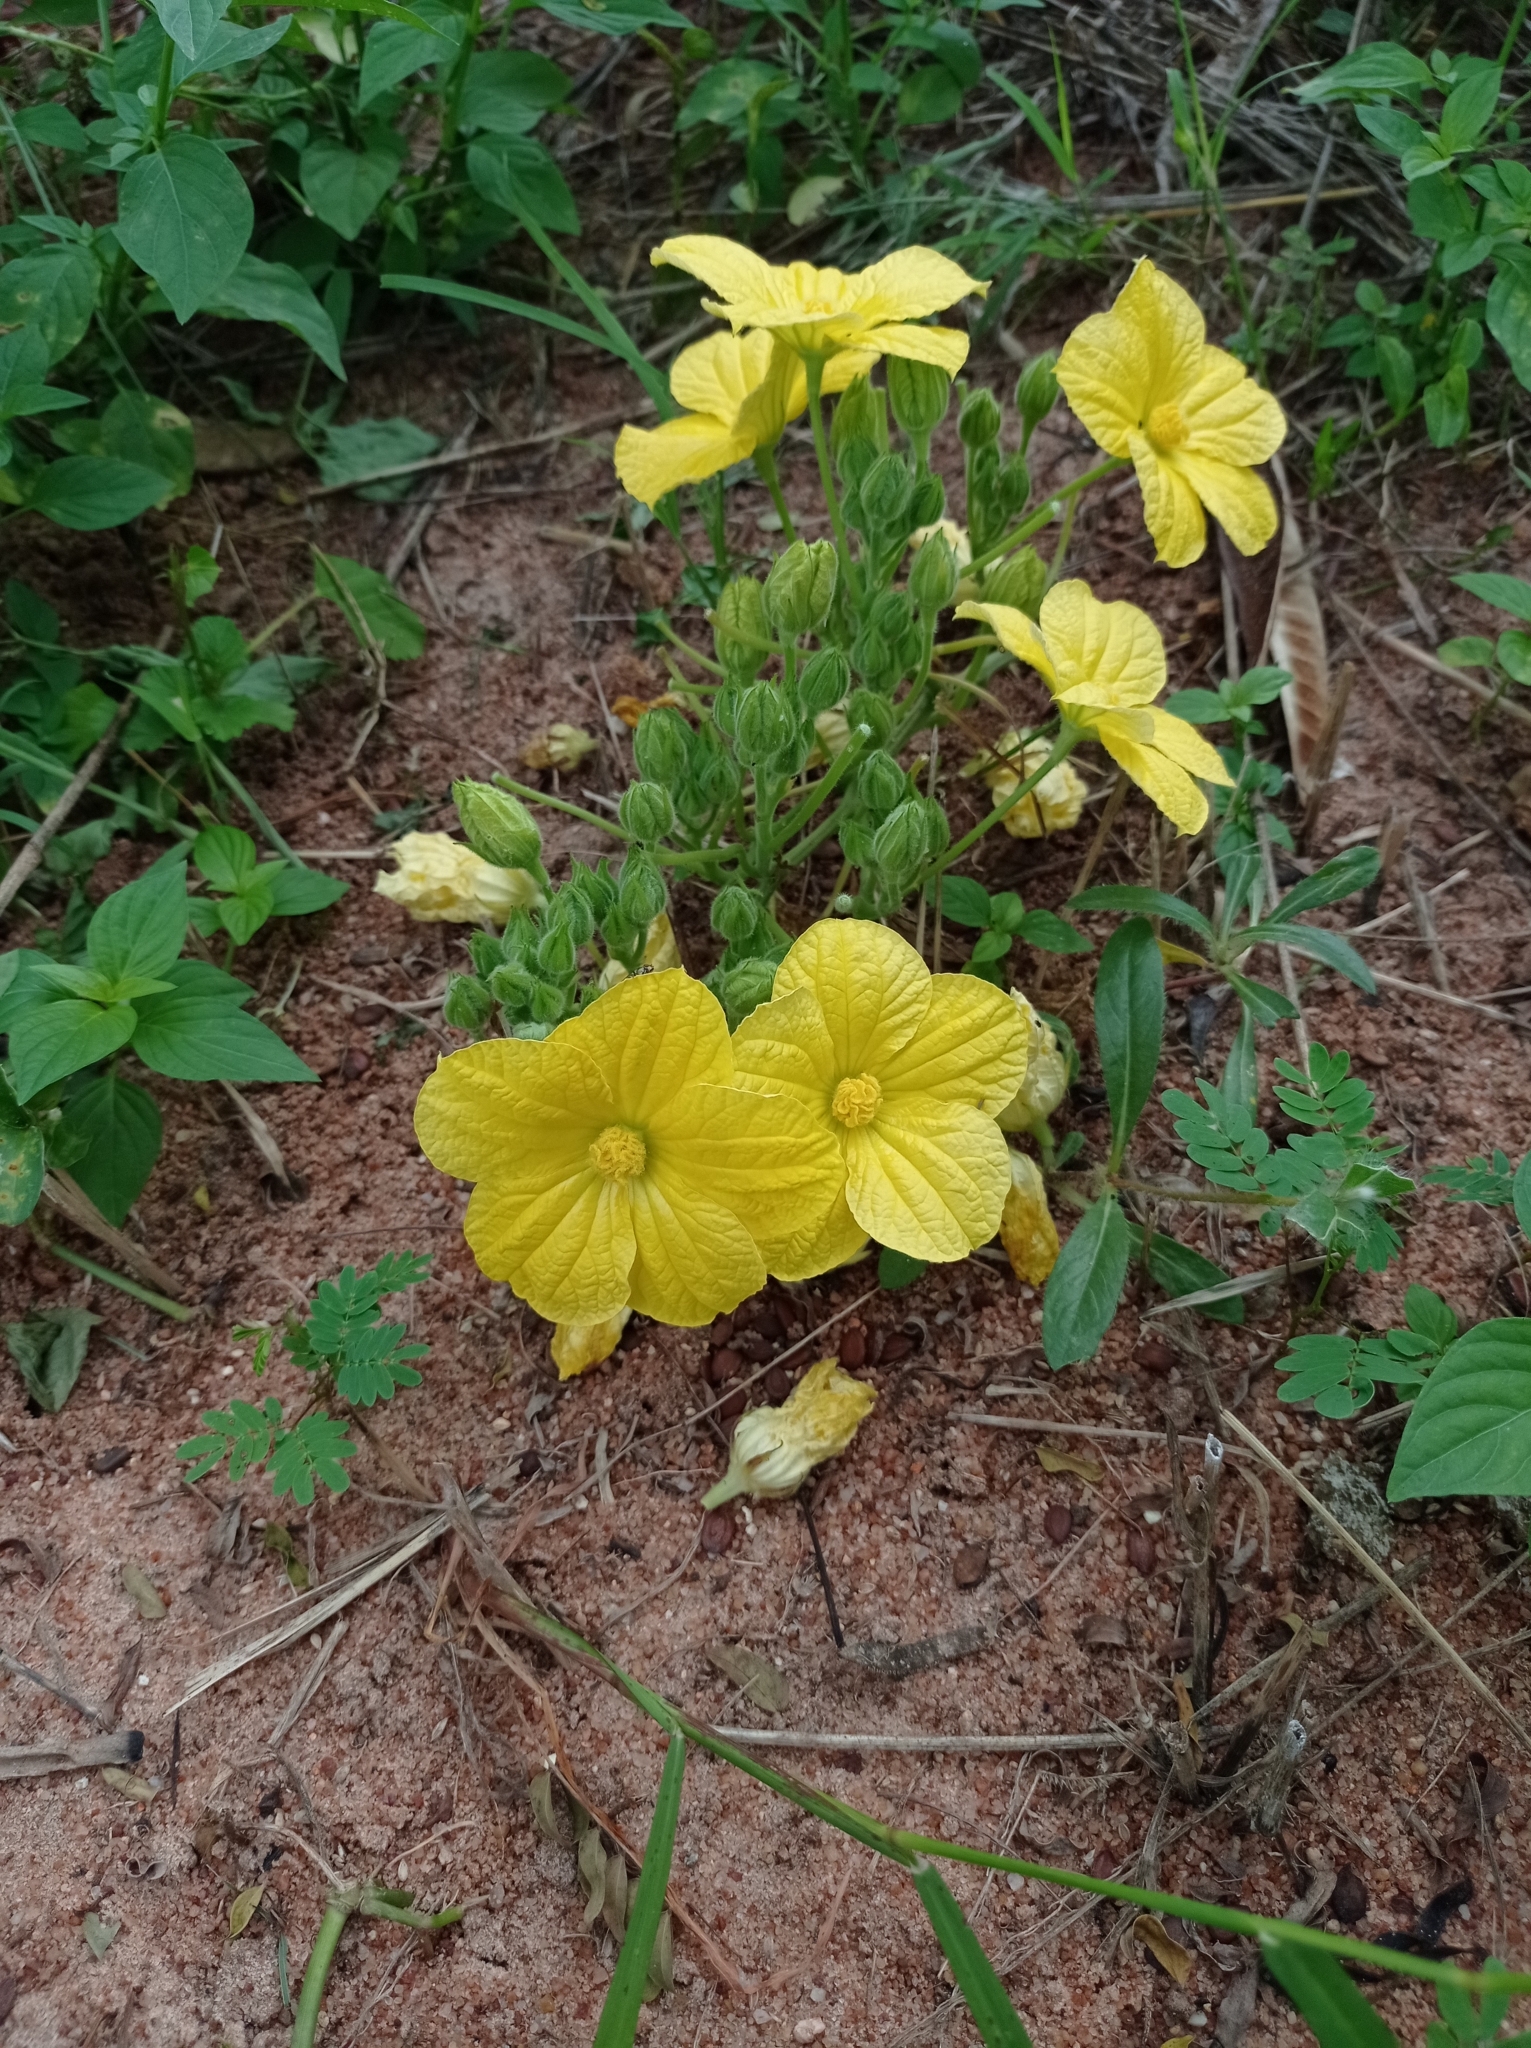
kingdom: Plantae
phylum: Tracheophyta
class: Magnoliopsida
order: Cucurbitales
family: Cucurbitaceae
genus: Eureiandra
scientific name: Eureiandra fasciculata
